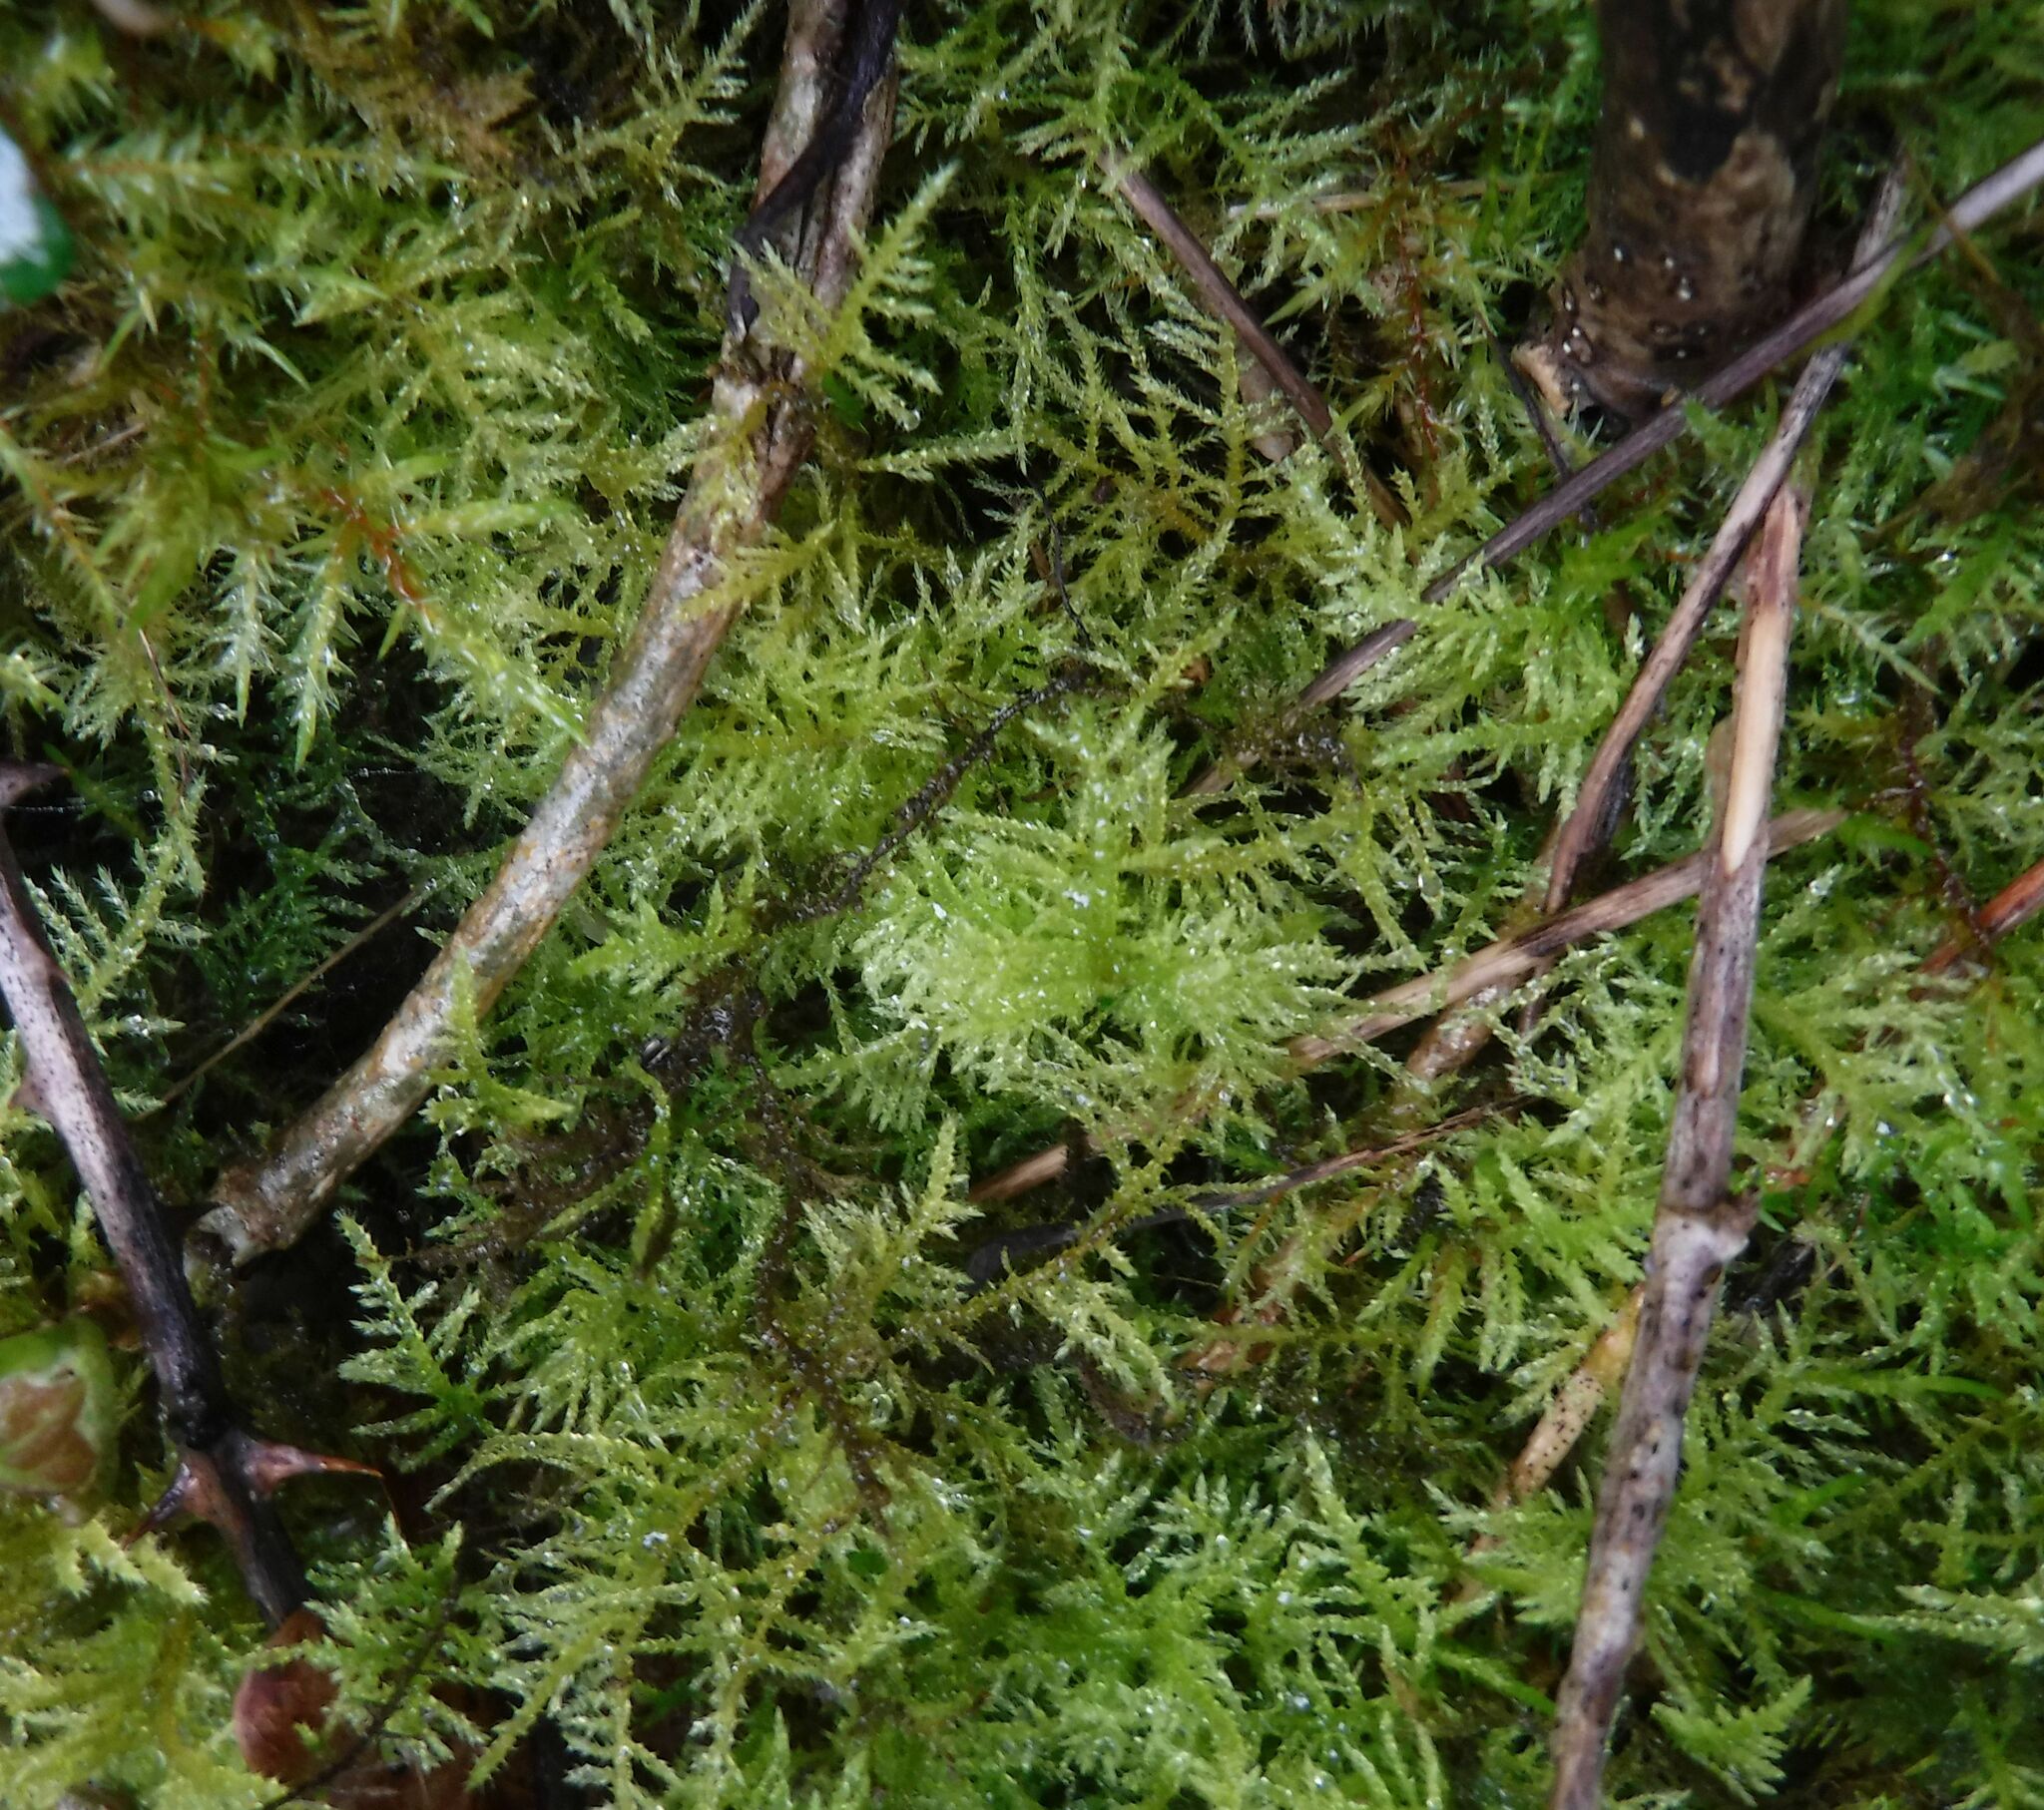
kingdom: Plantae
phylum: Bryophyta
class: Bryopsida
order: Hypnales
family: Brachytheciaceae
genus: Kindbergia
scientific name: Kindbergia praelonga
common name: Slender beaked moss
